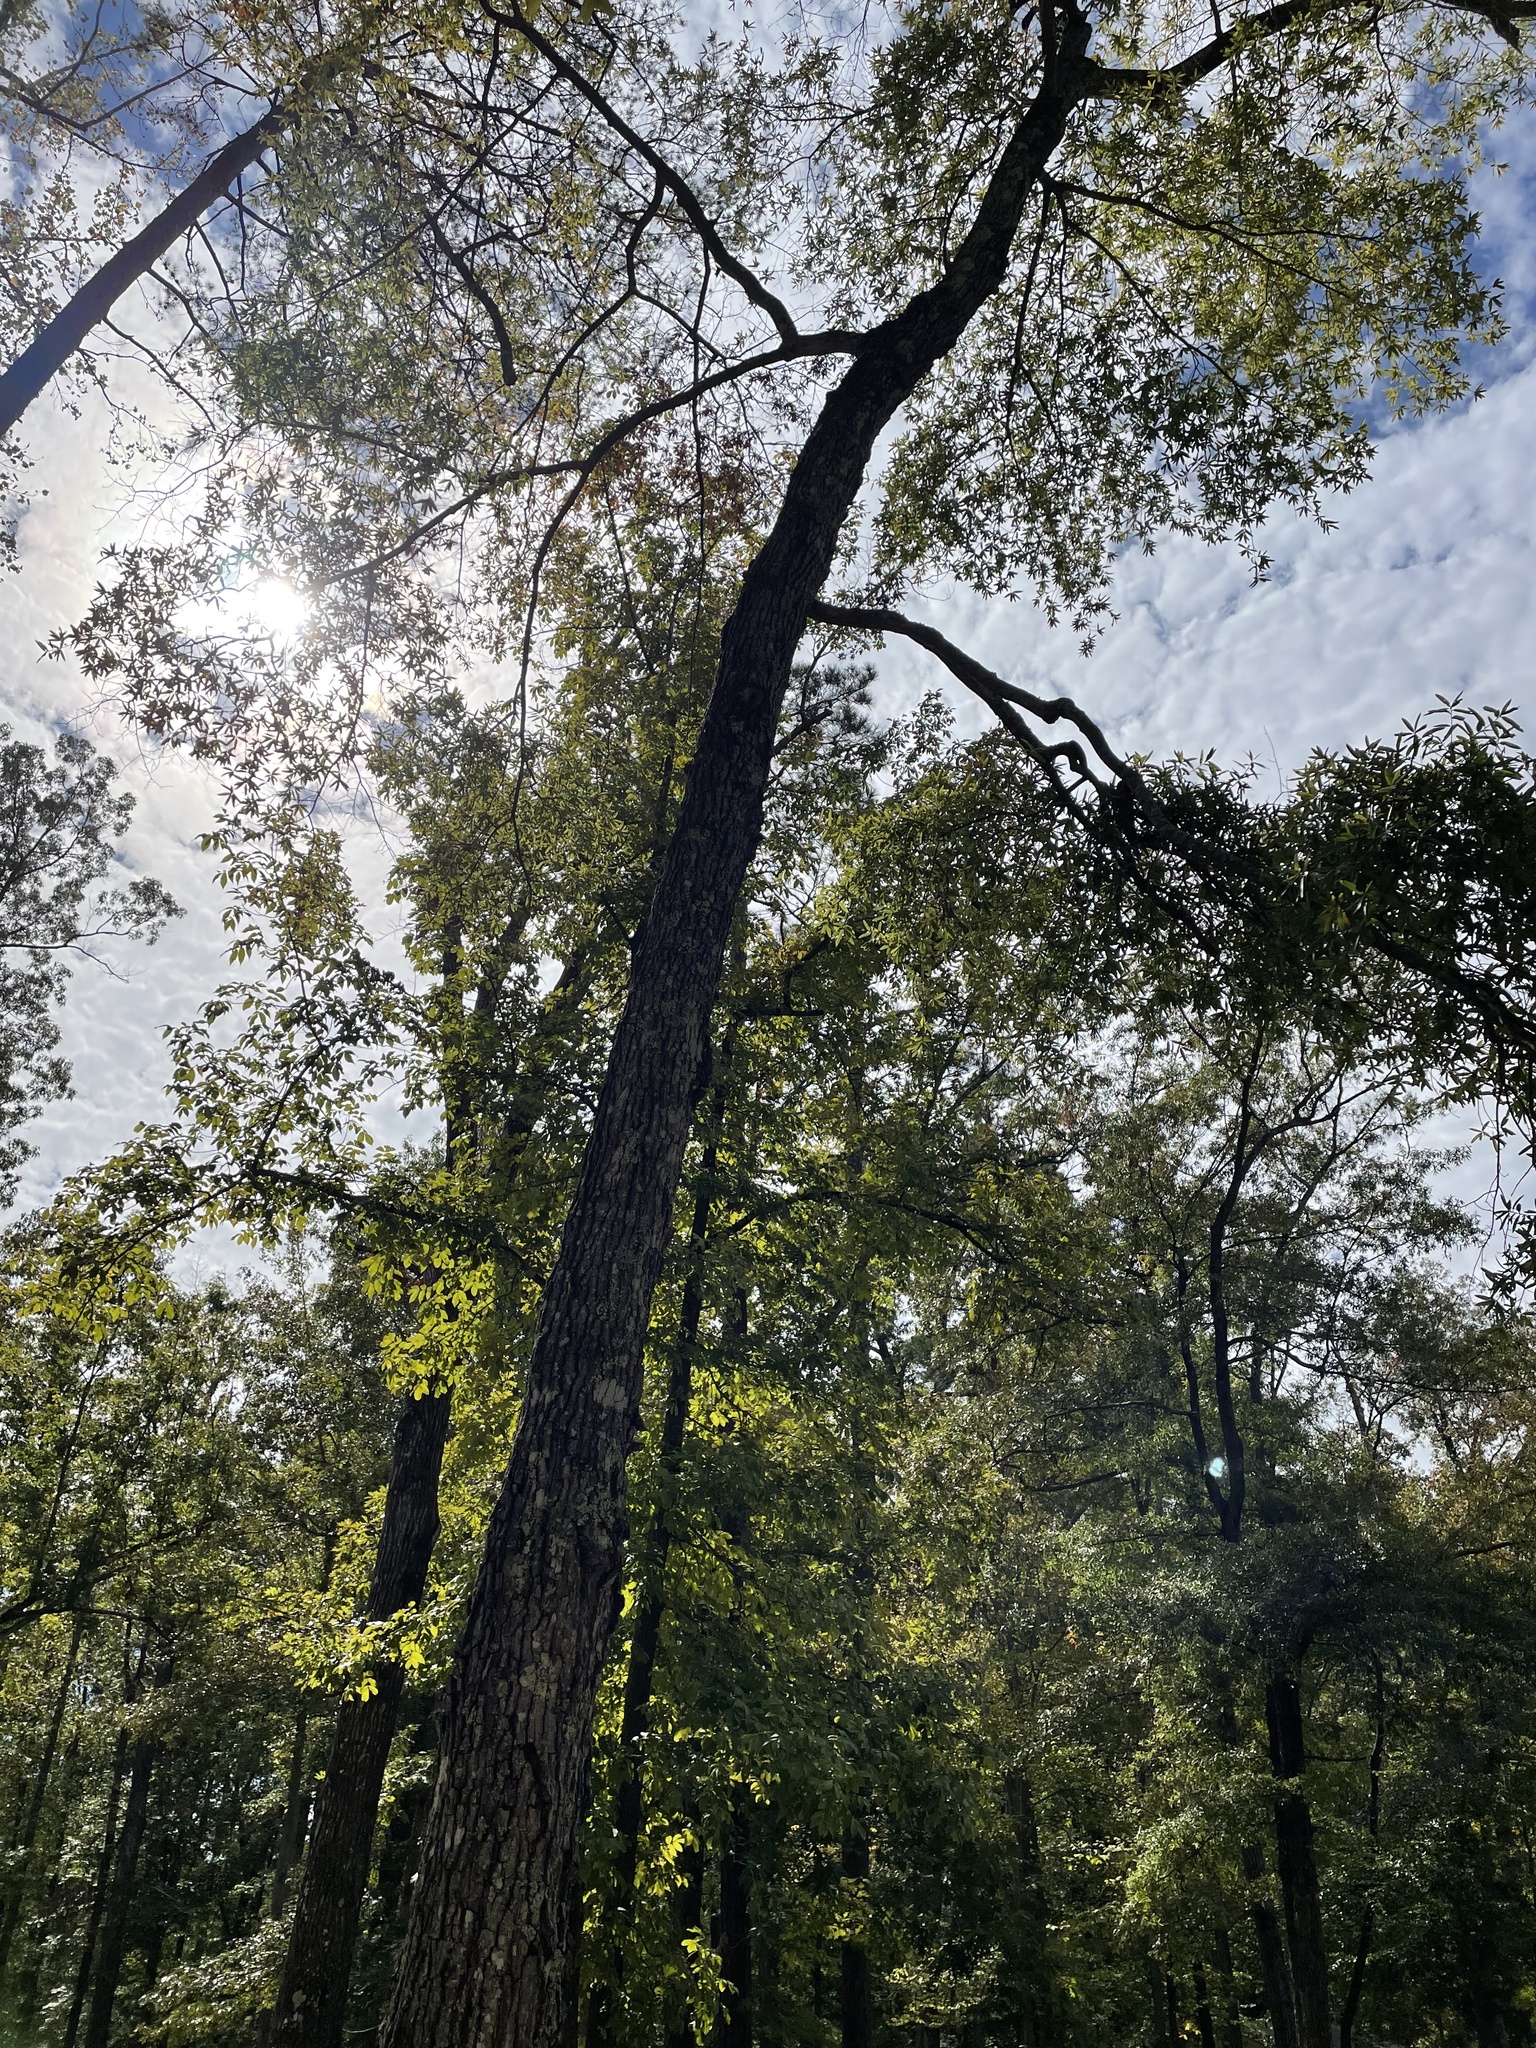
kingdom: Plantae
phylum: Tracheophyta
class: Magnoliopsida
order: Fagales
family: Fagaceae
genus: Quercus
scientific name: Quercus phellos
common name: Willow oak
